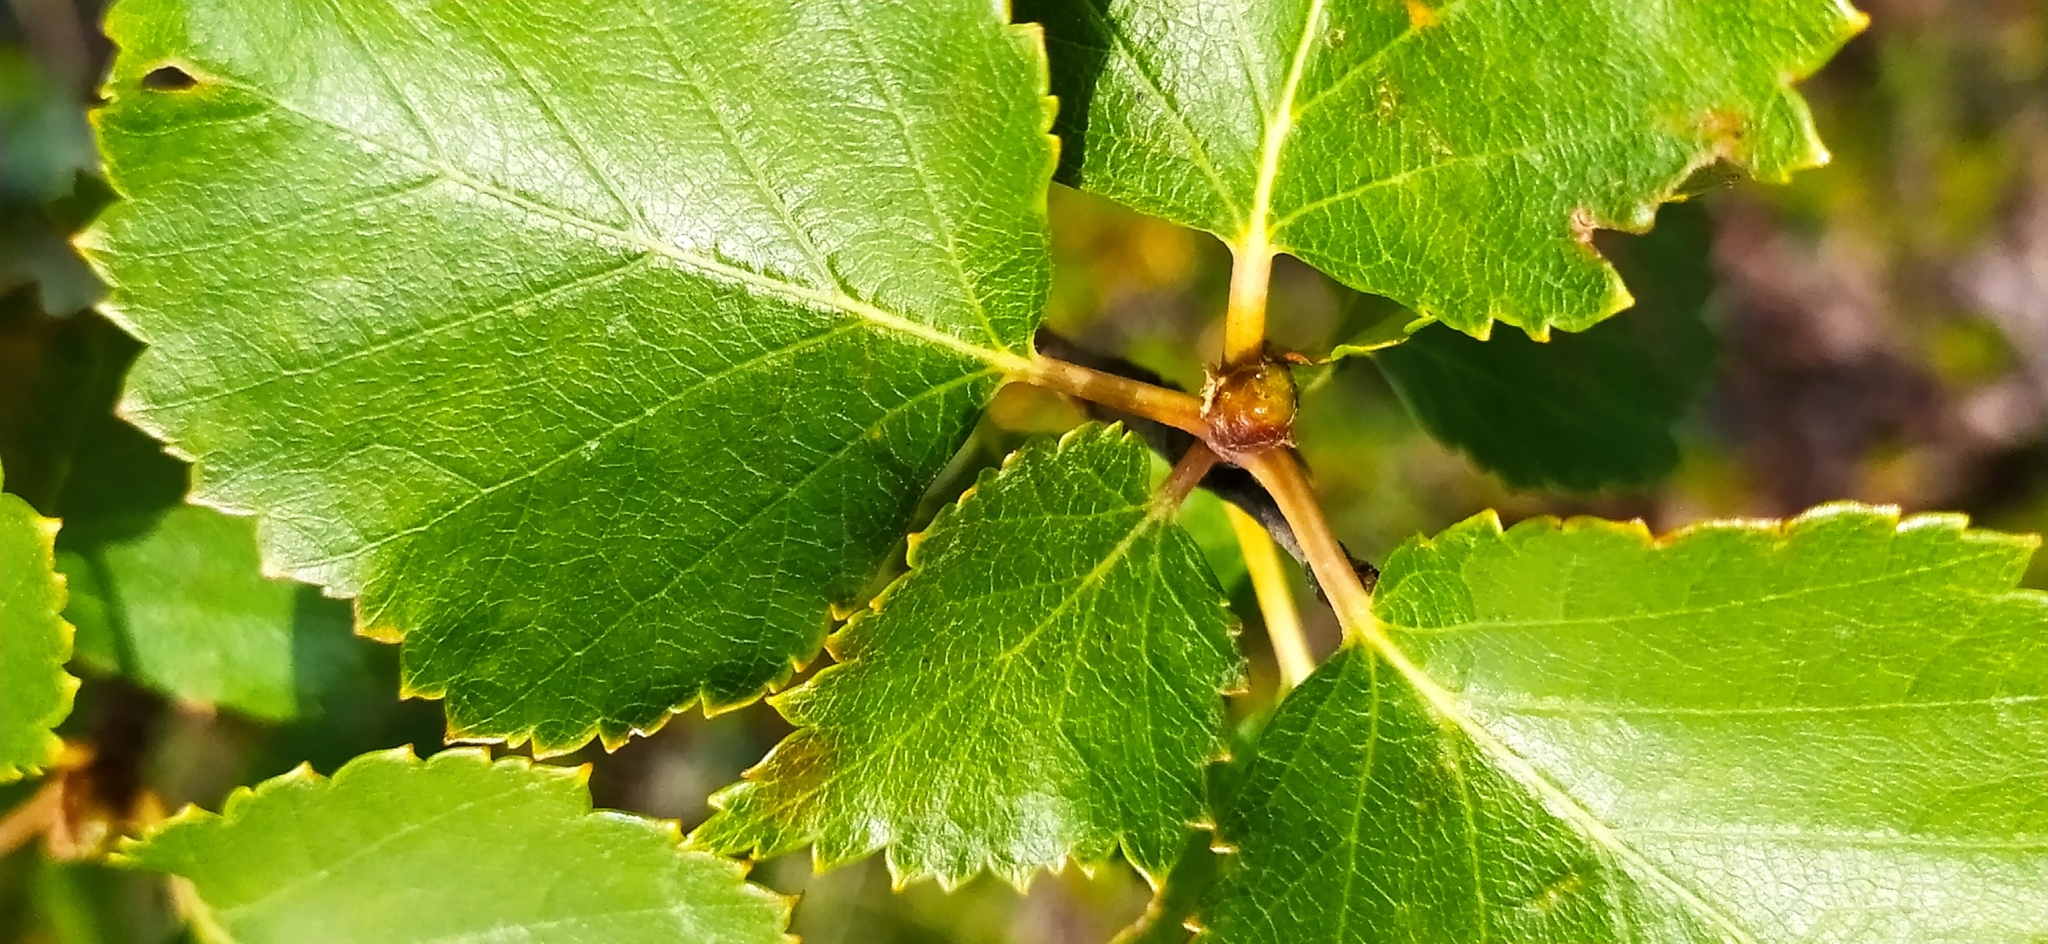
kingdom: Plantae
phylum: Tracheophyta
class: Magnoliopsida
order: Fagales
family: Betulaceae
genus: Betula
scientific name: Betula pubescens
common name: Downy birch
